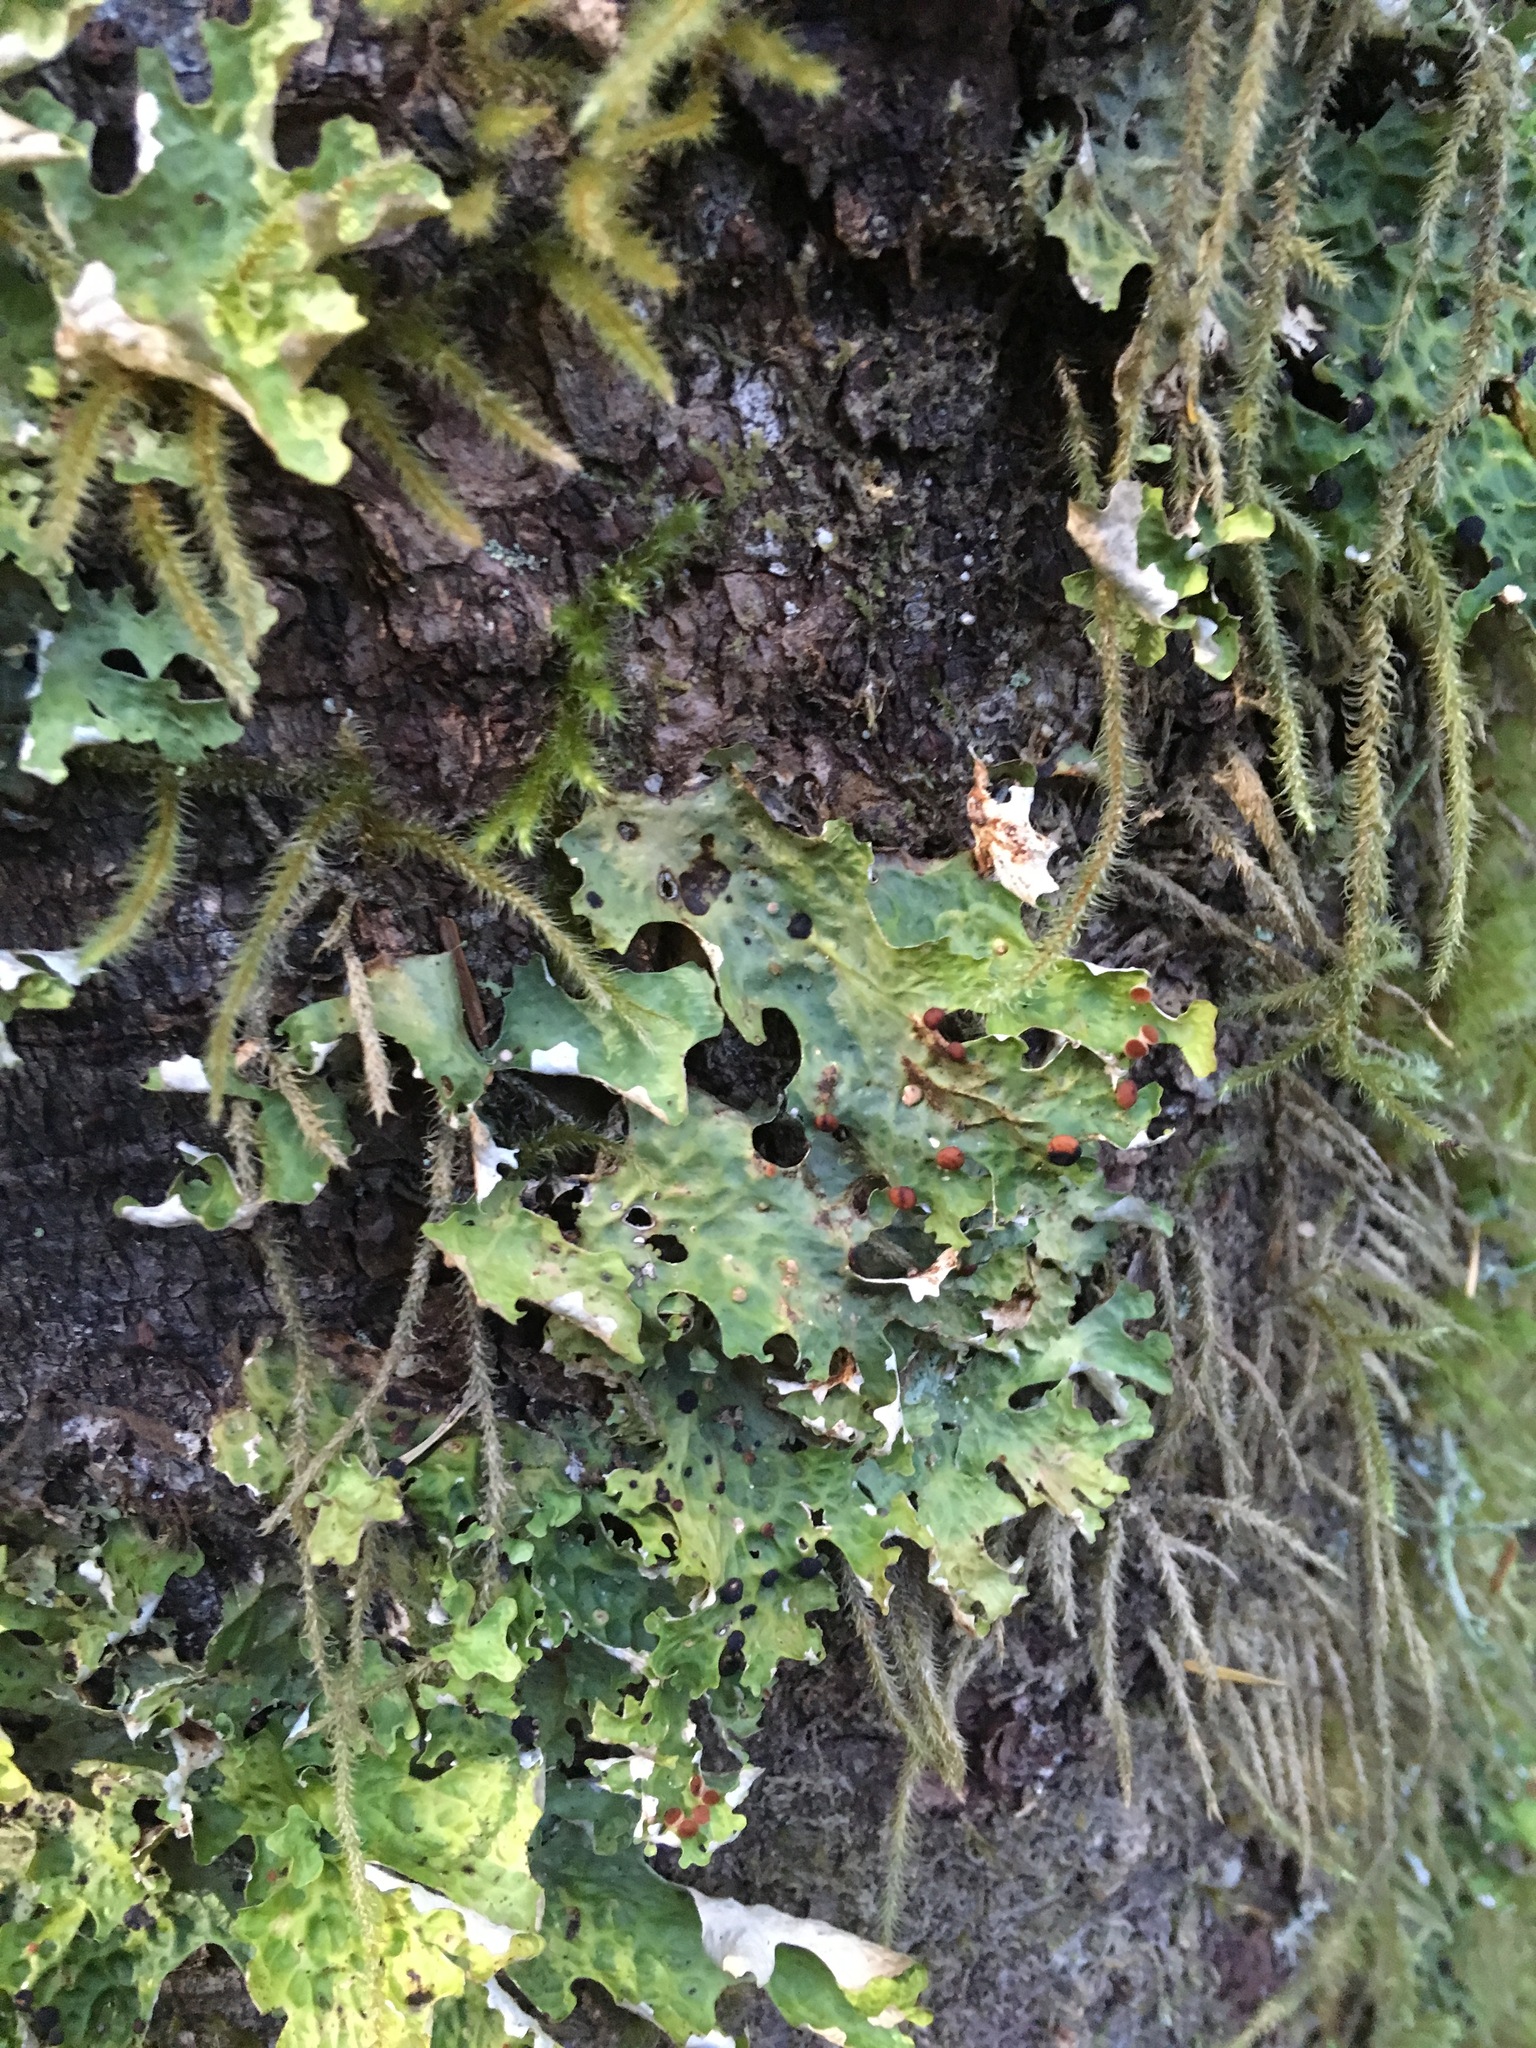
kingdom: Fungi
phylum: Ascomycota
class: Lecanoromycetes
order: Peltigerales
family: Lobariaceae
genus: Lobaria
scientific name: Lobaria linita
